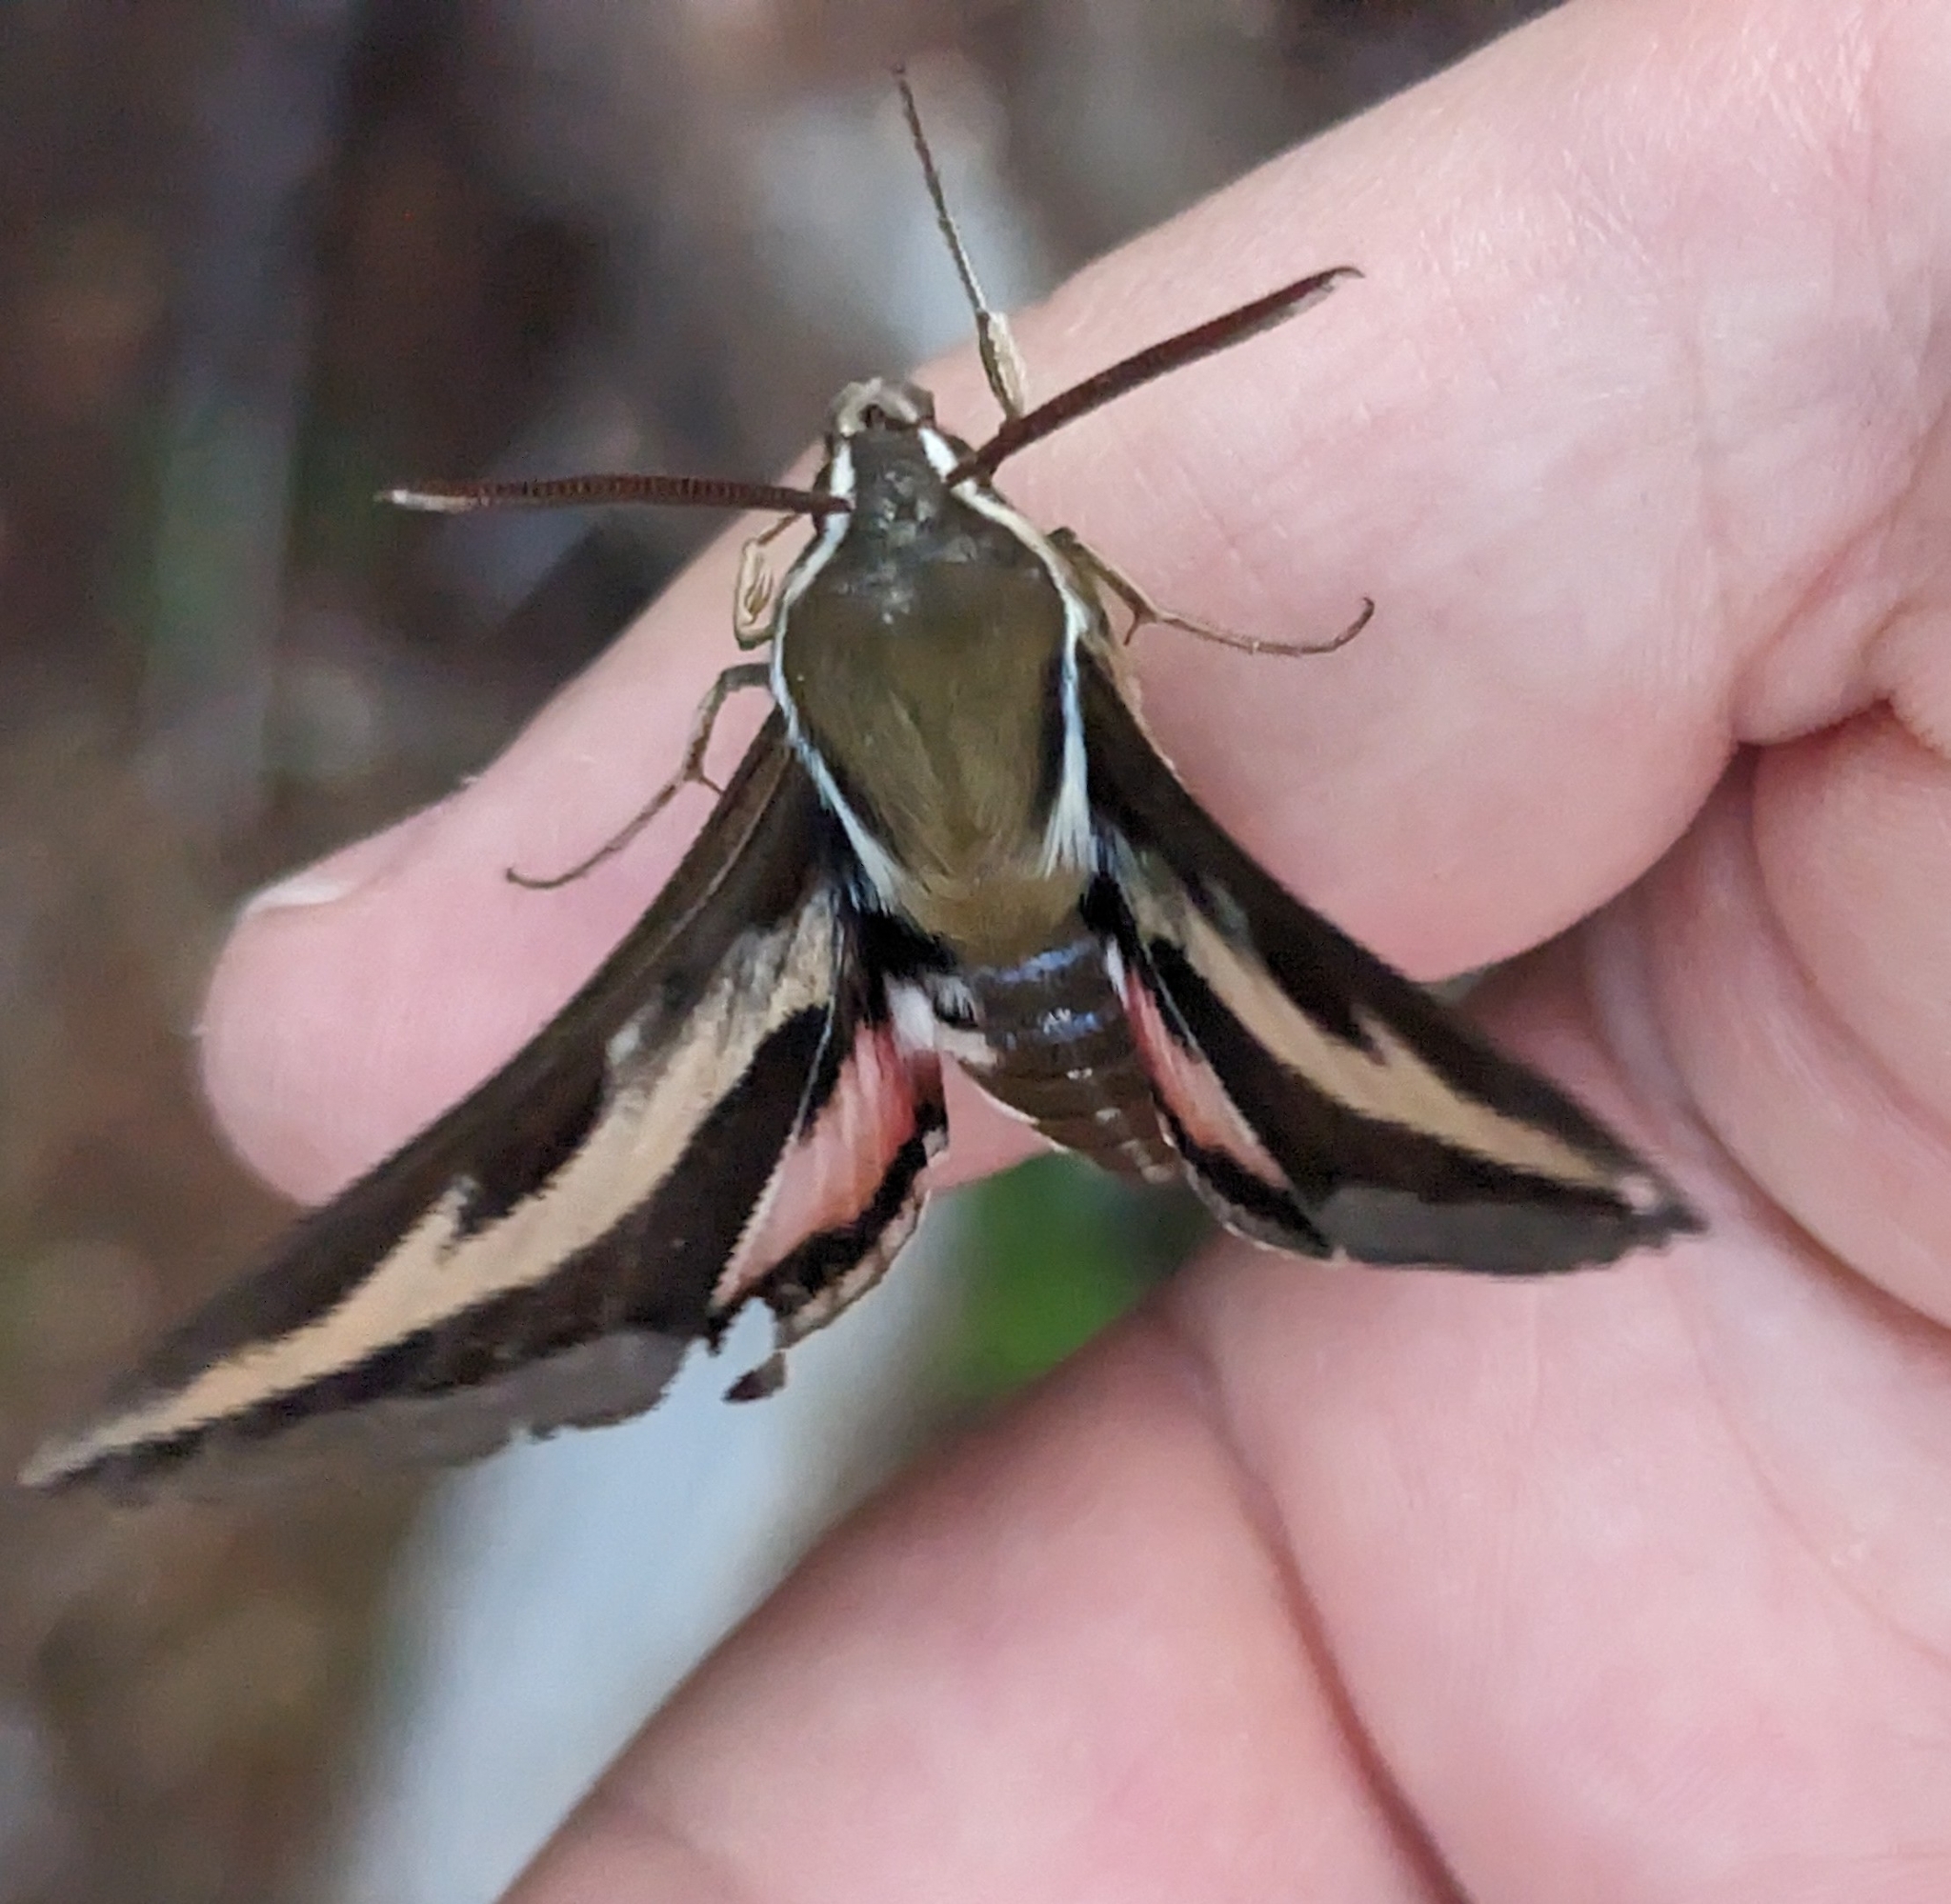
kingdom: Animalia
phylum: Arthropoda
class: Insecta
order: Lepidoptera
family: Sphingidae
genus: Hyles
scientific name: Hyles gallii
